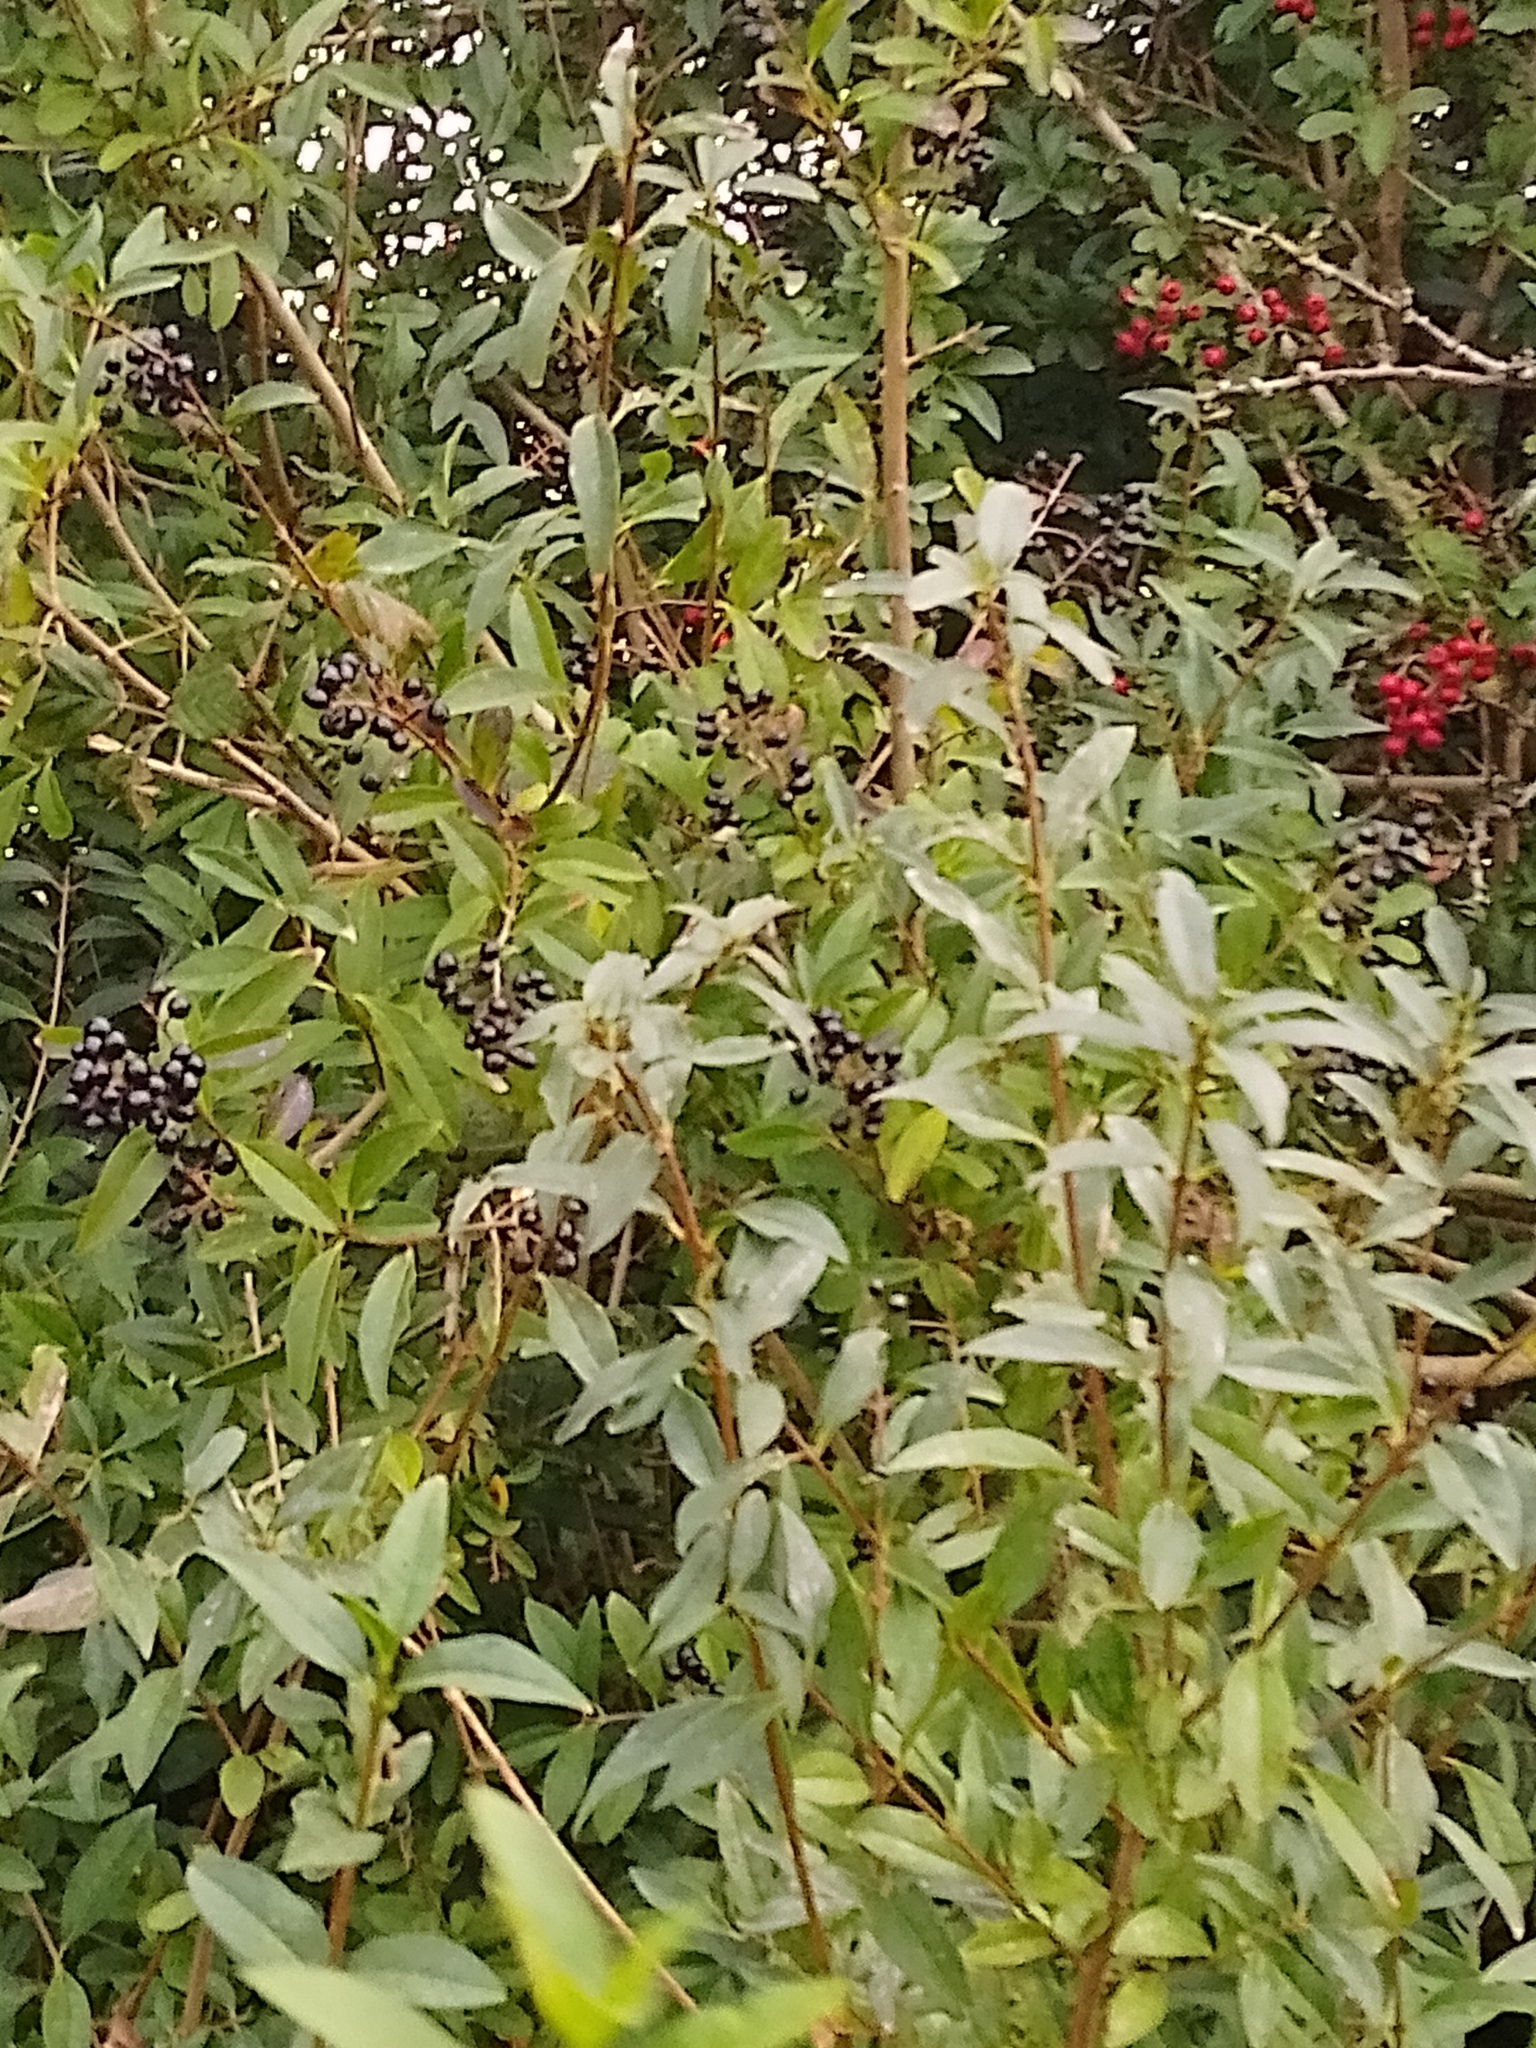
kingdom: Plantae
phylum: Tracheophyta
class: Magnoliopsida
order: Lamiales
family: Oleaceae
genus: Ligustrum
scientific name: Ligustrum vulgare
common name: Wild privet
